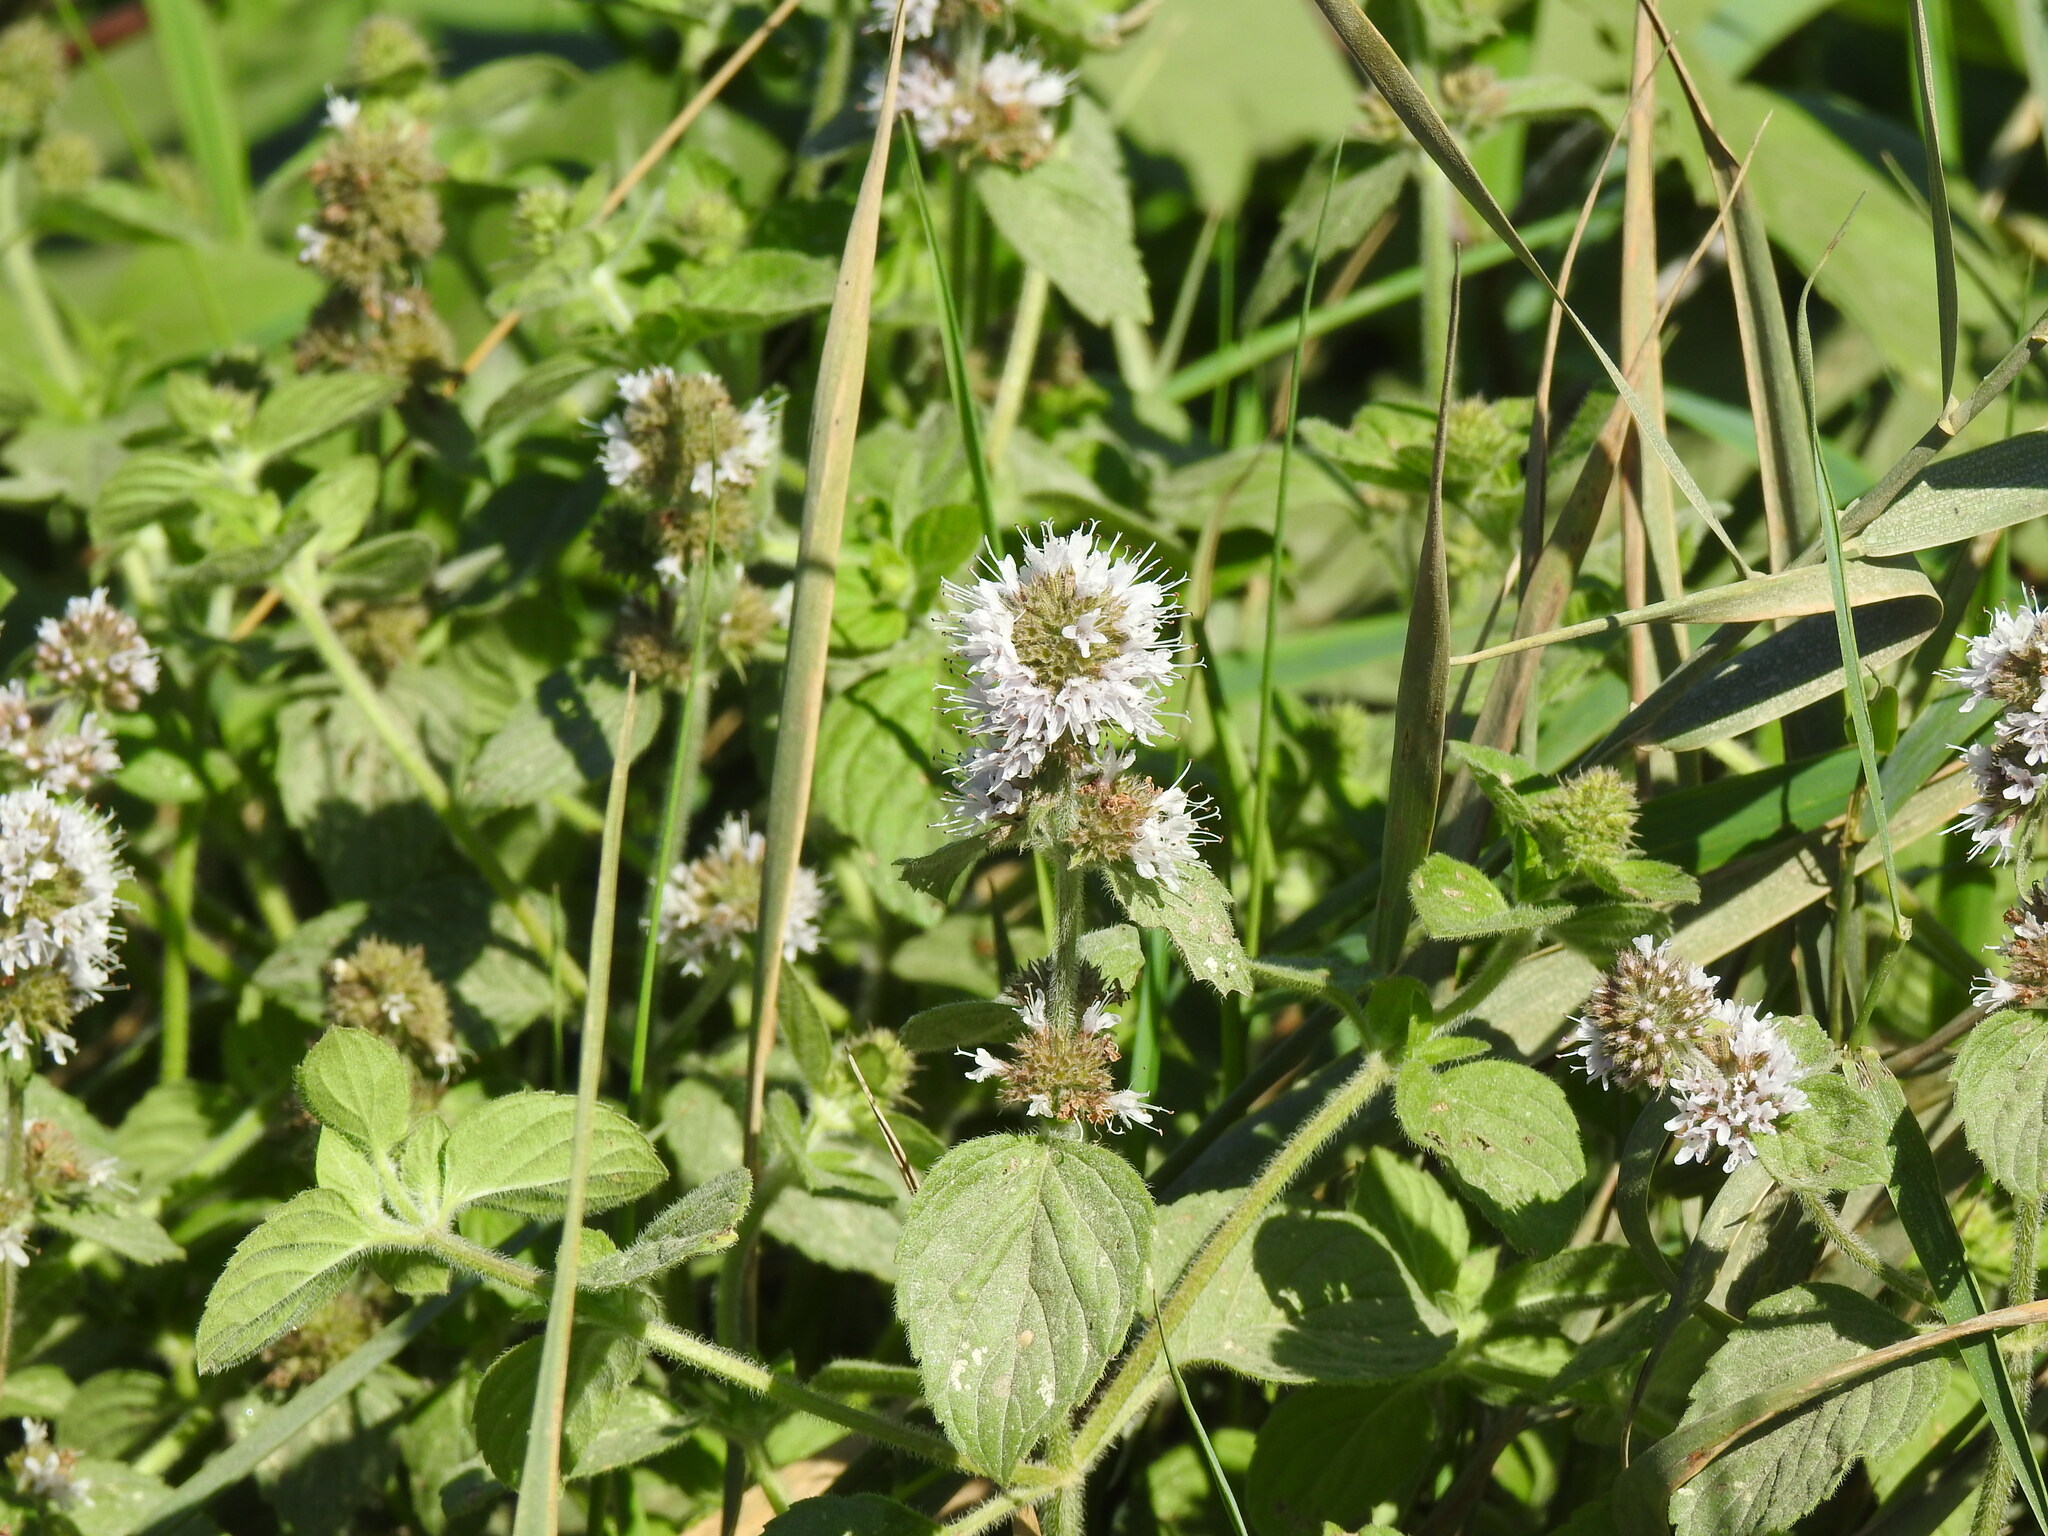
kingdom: Plantae
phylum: Tracheophyta
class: Magnoliopsida
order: Lamiales
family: Lamiaceae
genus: Mentha
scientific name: Mentha aquatica
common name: Water mint
